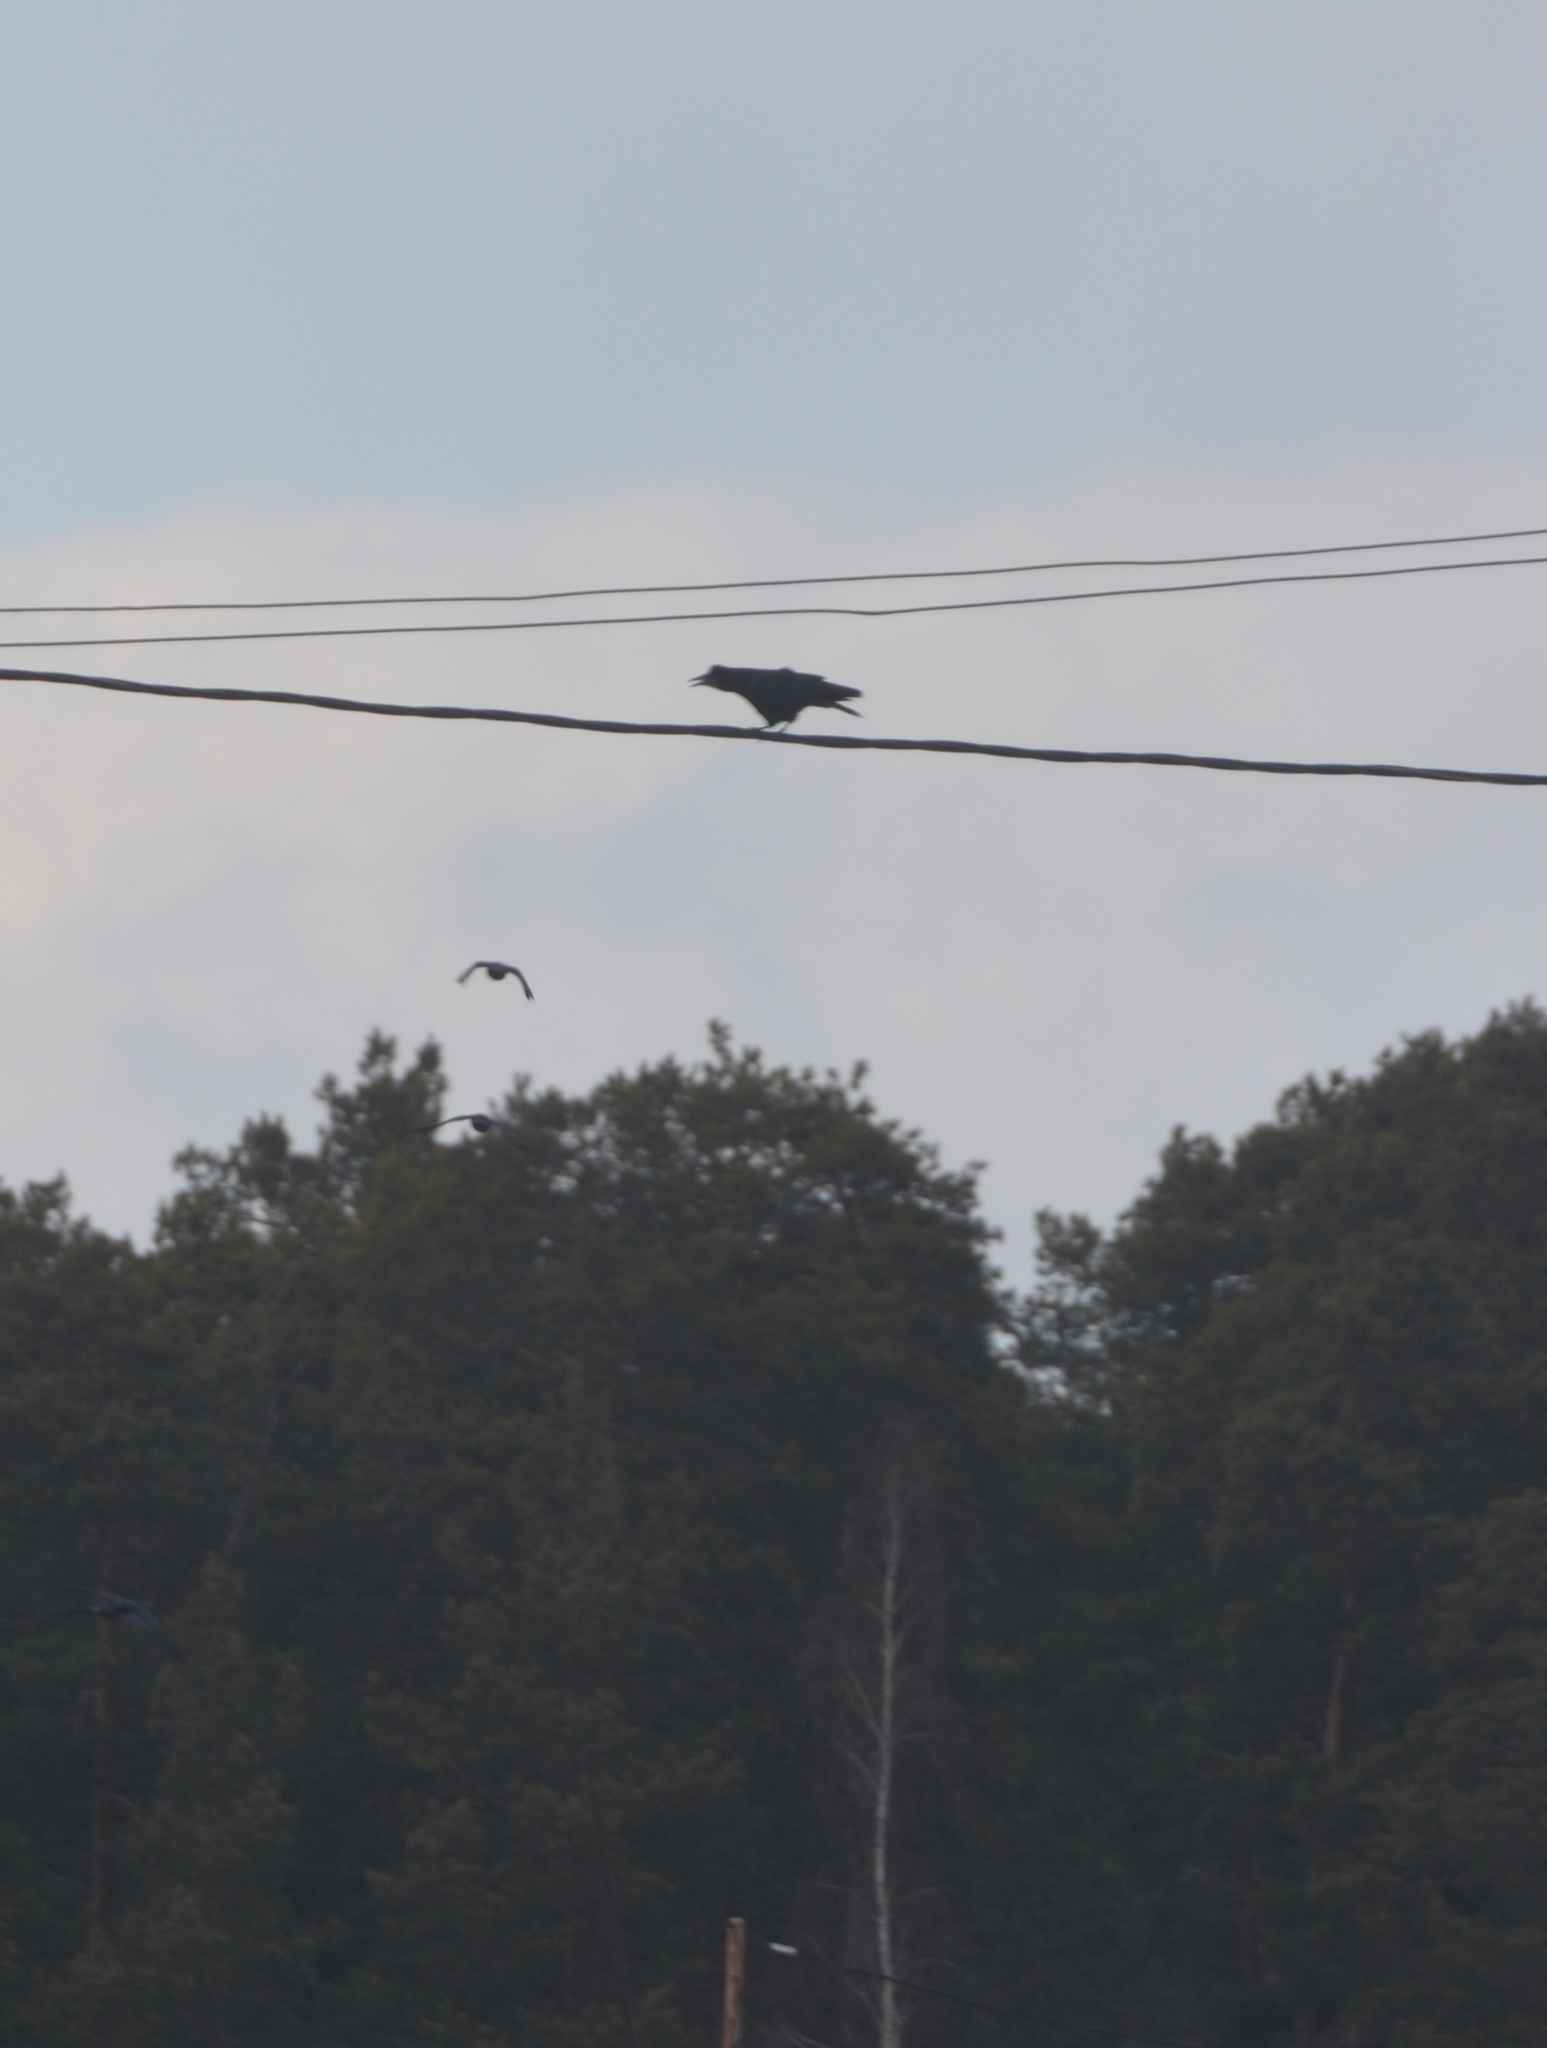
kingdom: Animalia
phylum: Chordata
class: Aves
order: Passeriformes
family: Corvidae
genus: Corvus
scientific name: Corvus frugilegus
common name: Rook
